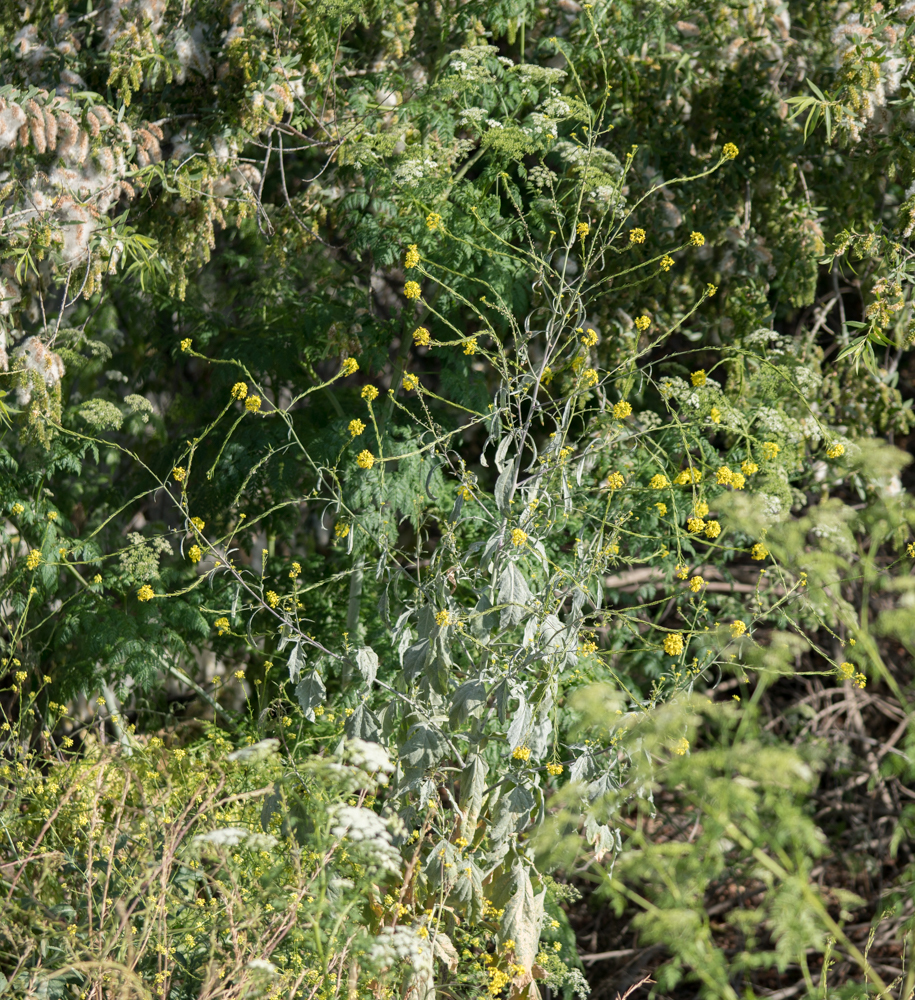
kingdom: Plantae
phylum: Tracheophyta
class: Magnoliopsida
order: Brassicales
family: Brassicaceae
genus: Brassica
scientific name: Brassica nigra
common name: Black mustard
